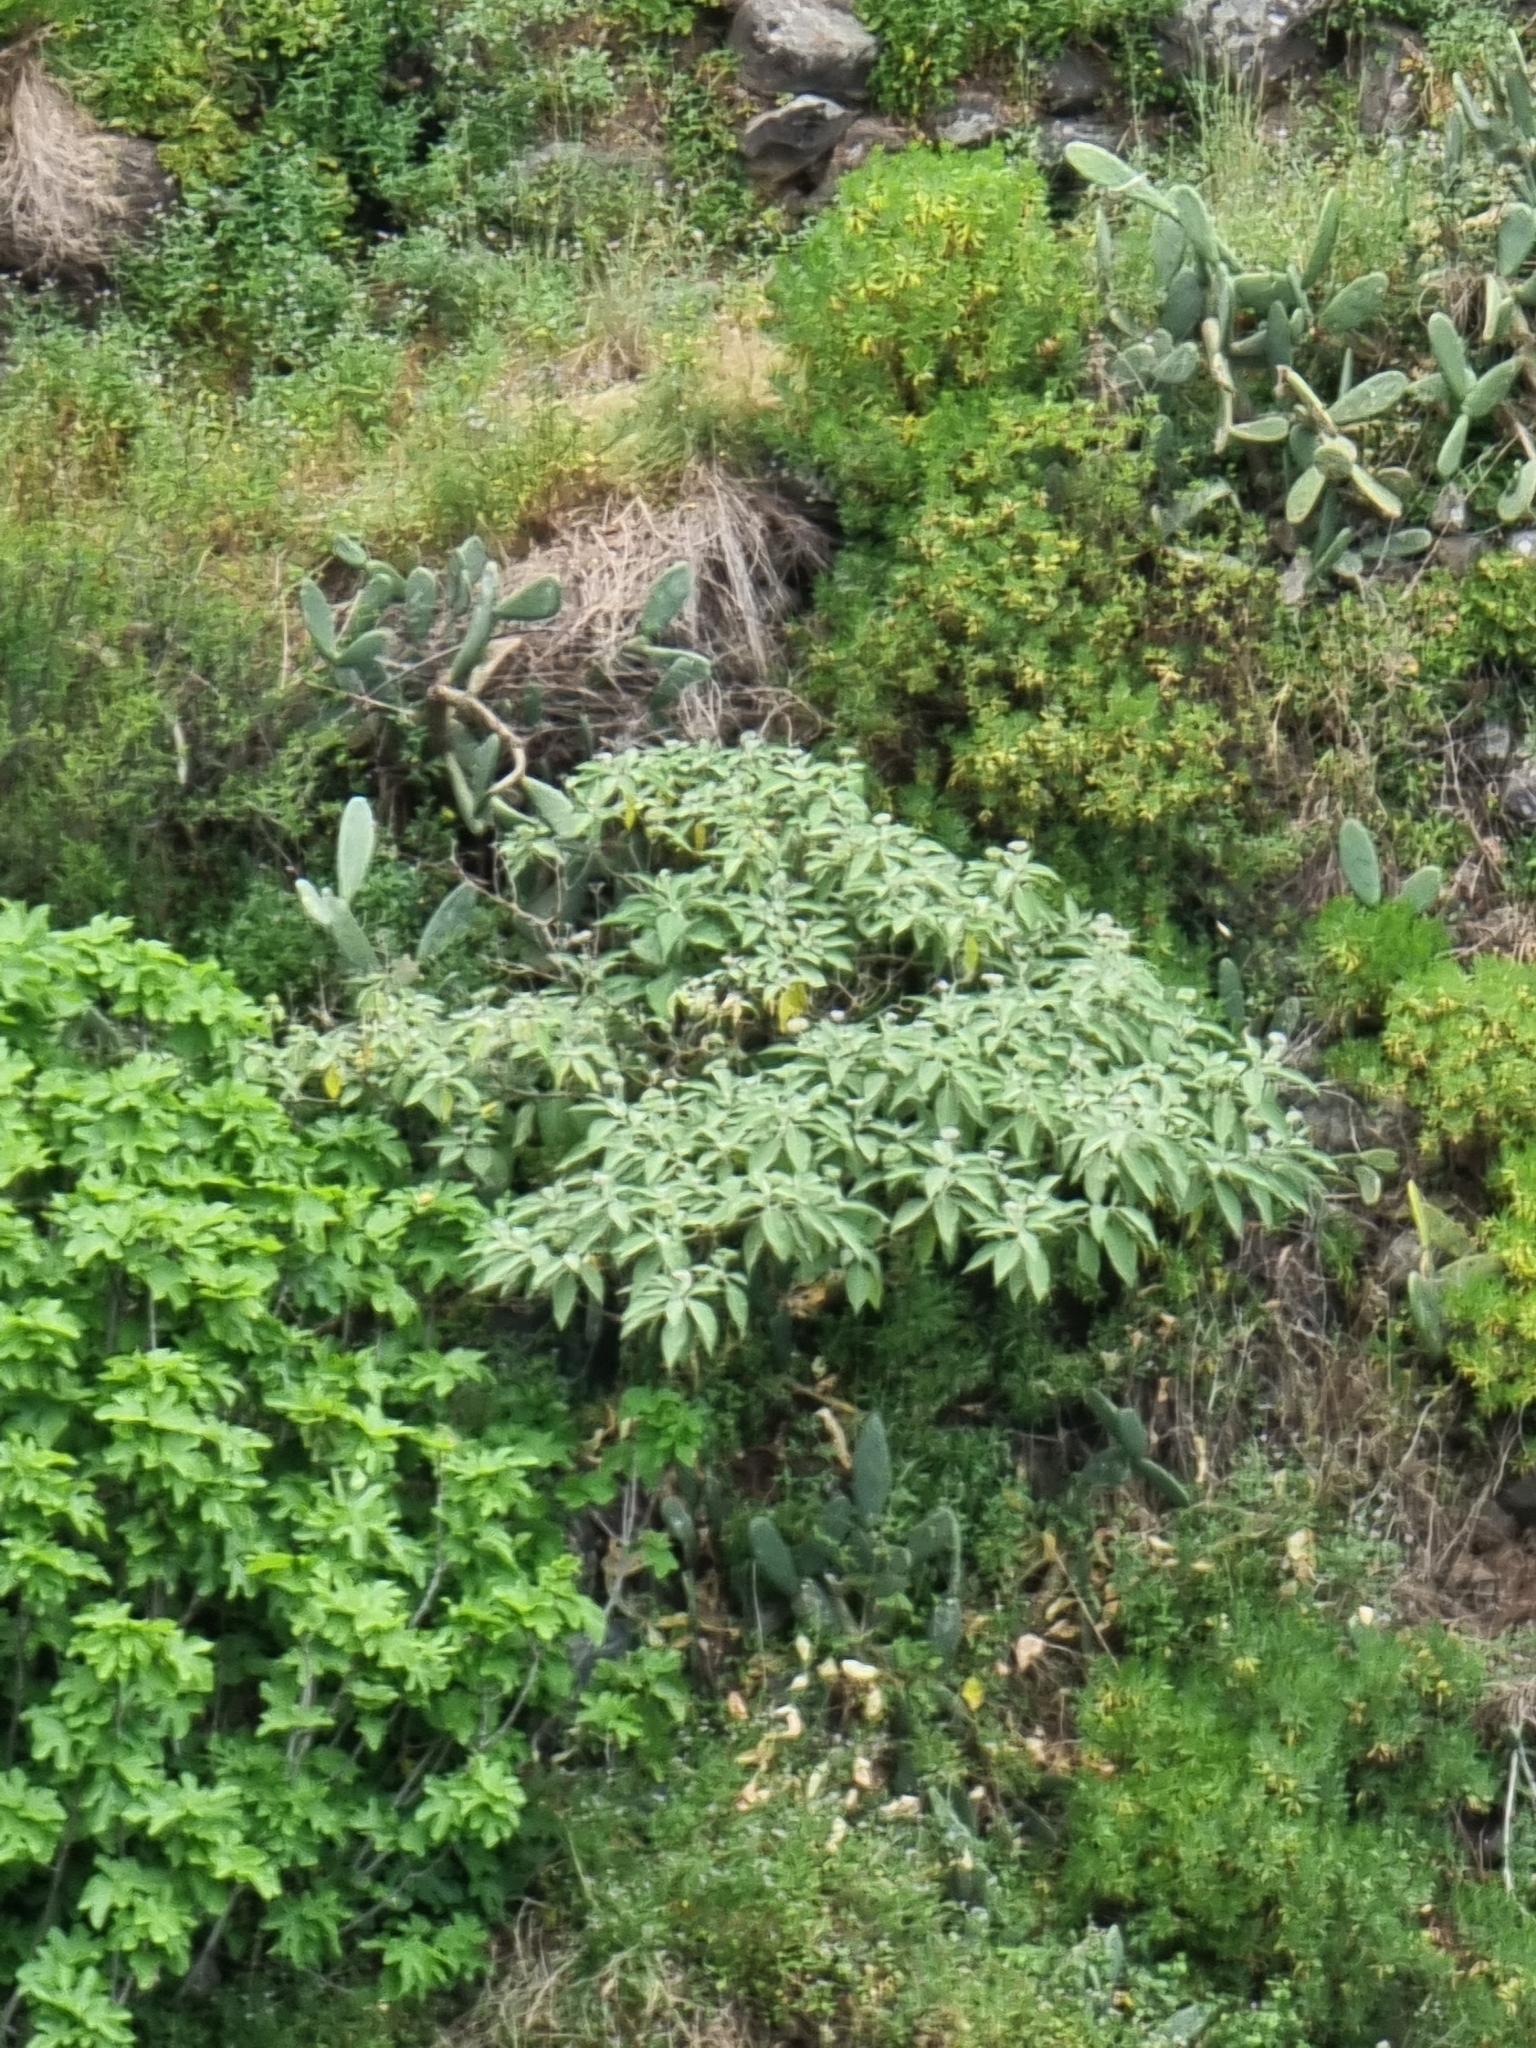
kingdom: Plantae
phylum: Tracheophyta
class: Magnoliopsida
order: Solanales
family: Solanaceae
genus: Solanum
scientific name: Solanum mauritianum
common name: Earleaf nightshade
